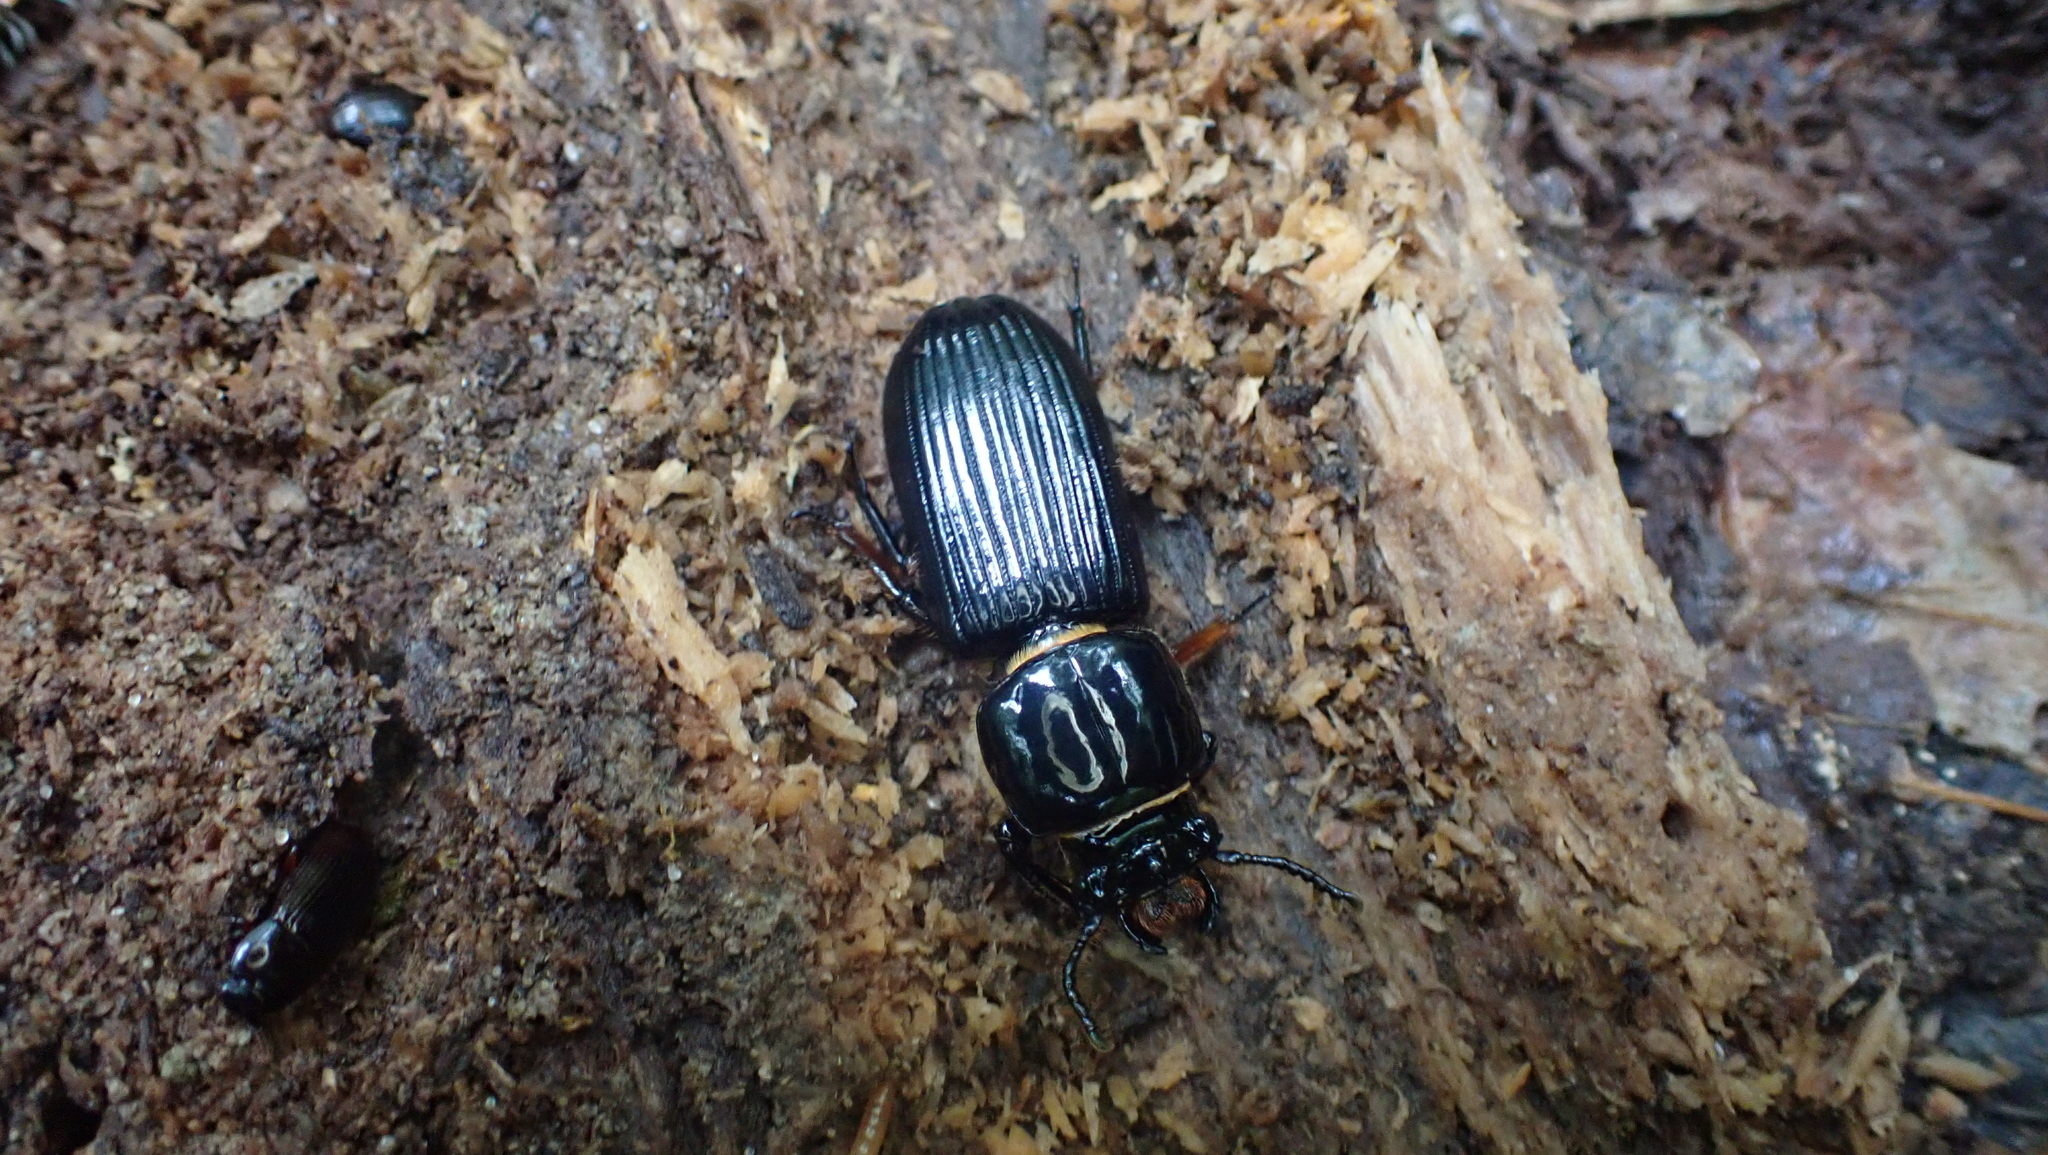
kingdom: Animalia
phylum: Arthropoda
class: Insecta
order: Coleoptera
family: Passalidae
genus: Odontotaenius
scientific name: Odontotaenius disjunctus
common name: Patent leather beetle
